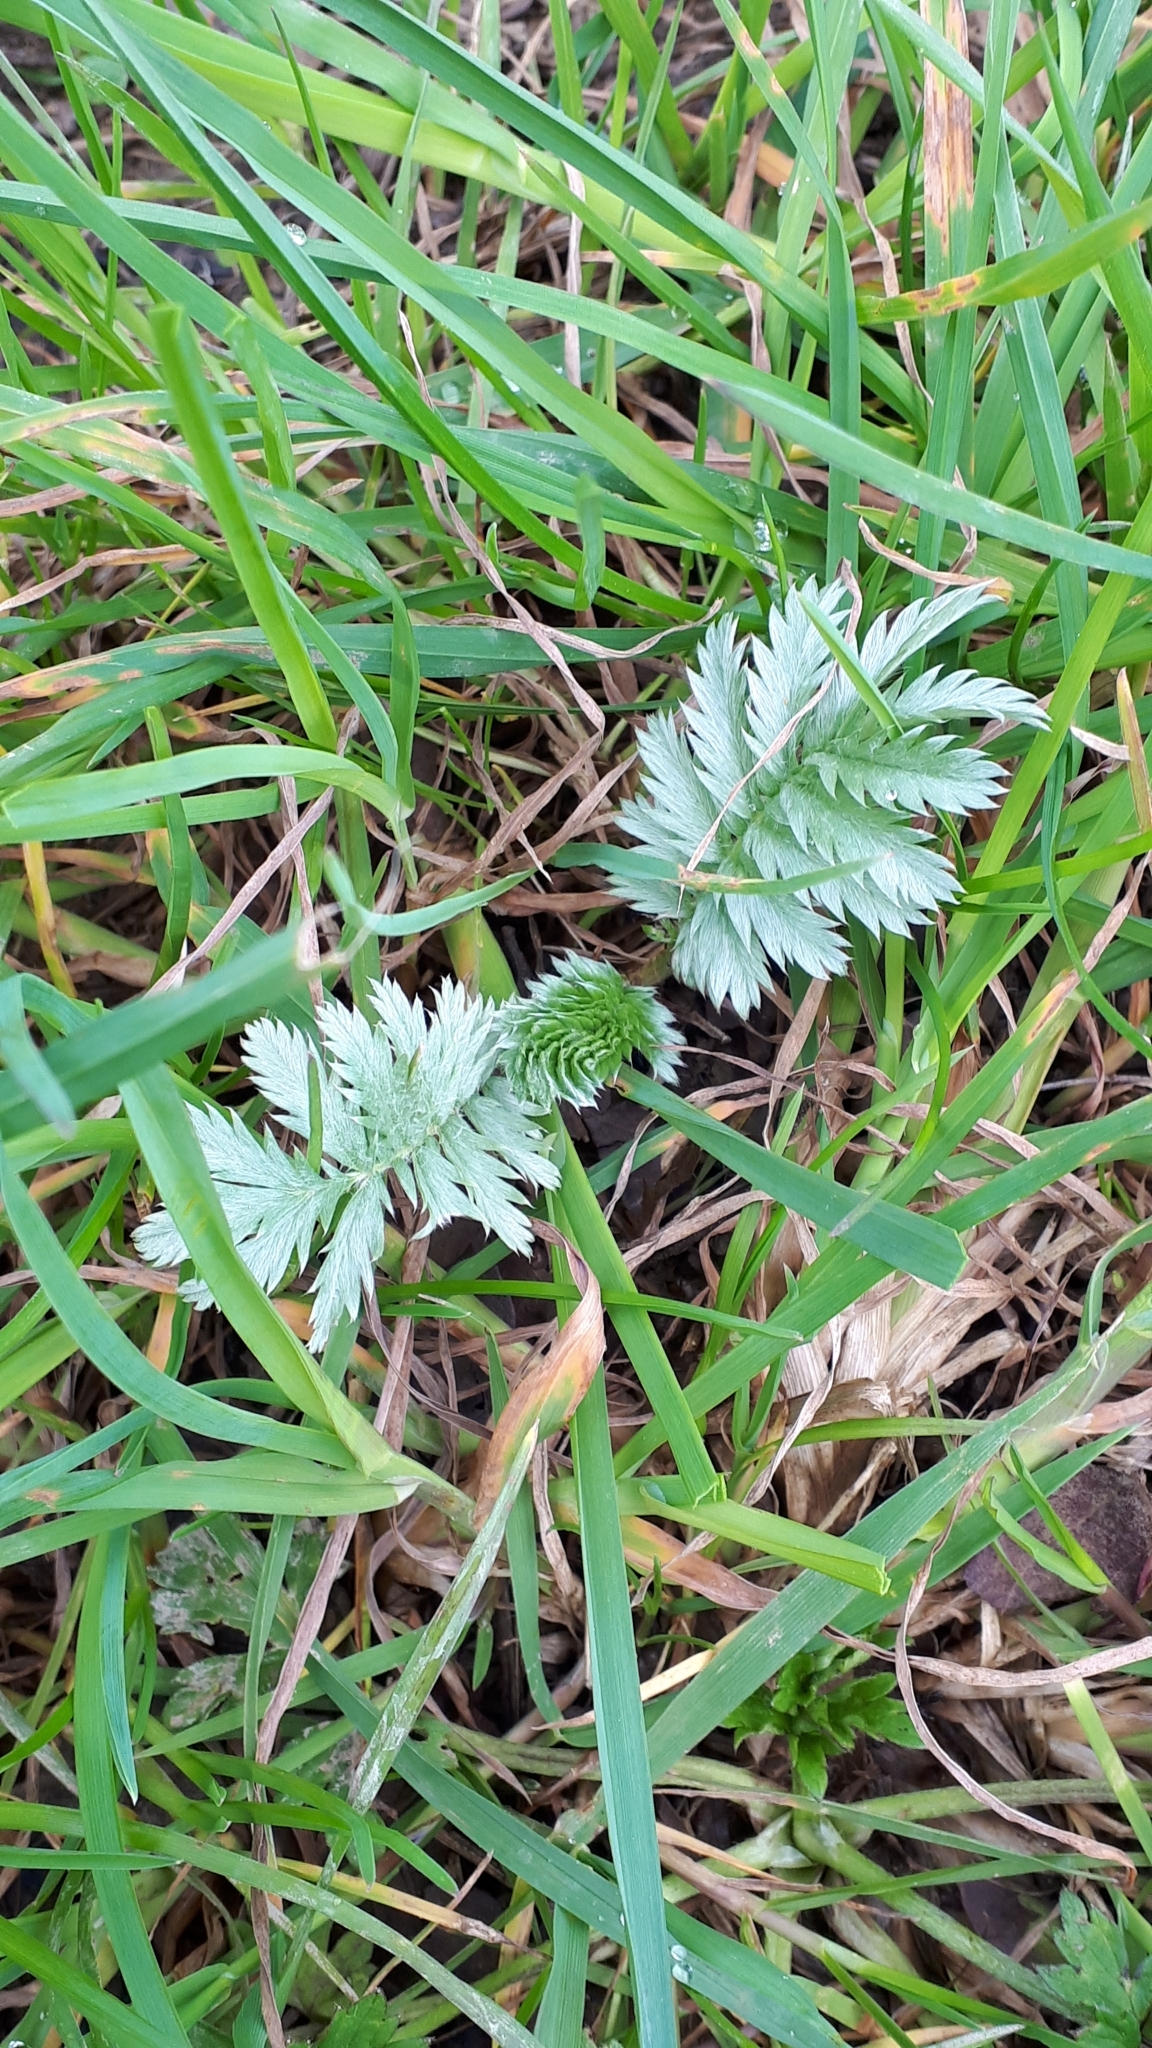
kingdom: Plantae
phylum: Tracheophyta
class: Magnoliopsida
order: Rosales
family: Rosaceae
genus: Argentina
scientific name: Argentina anserina
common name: Common silverweed
